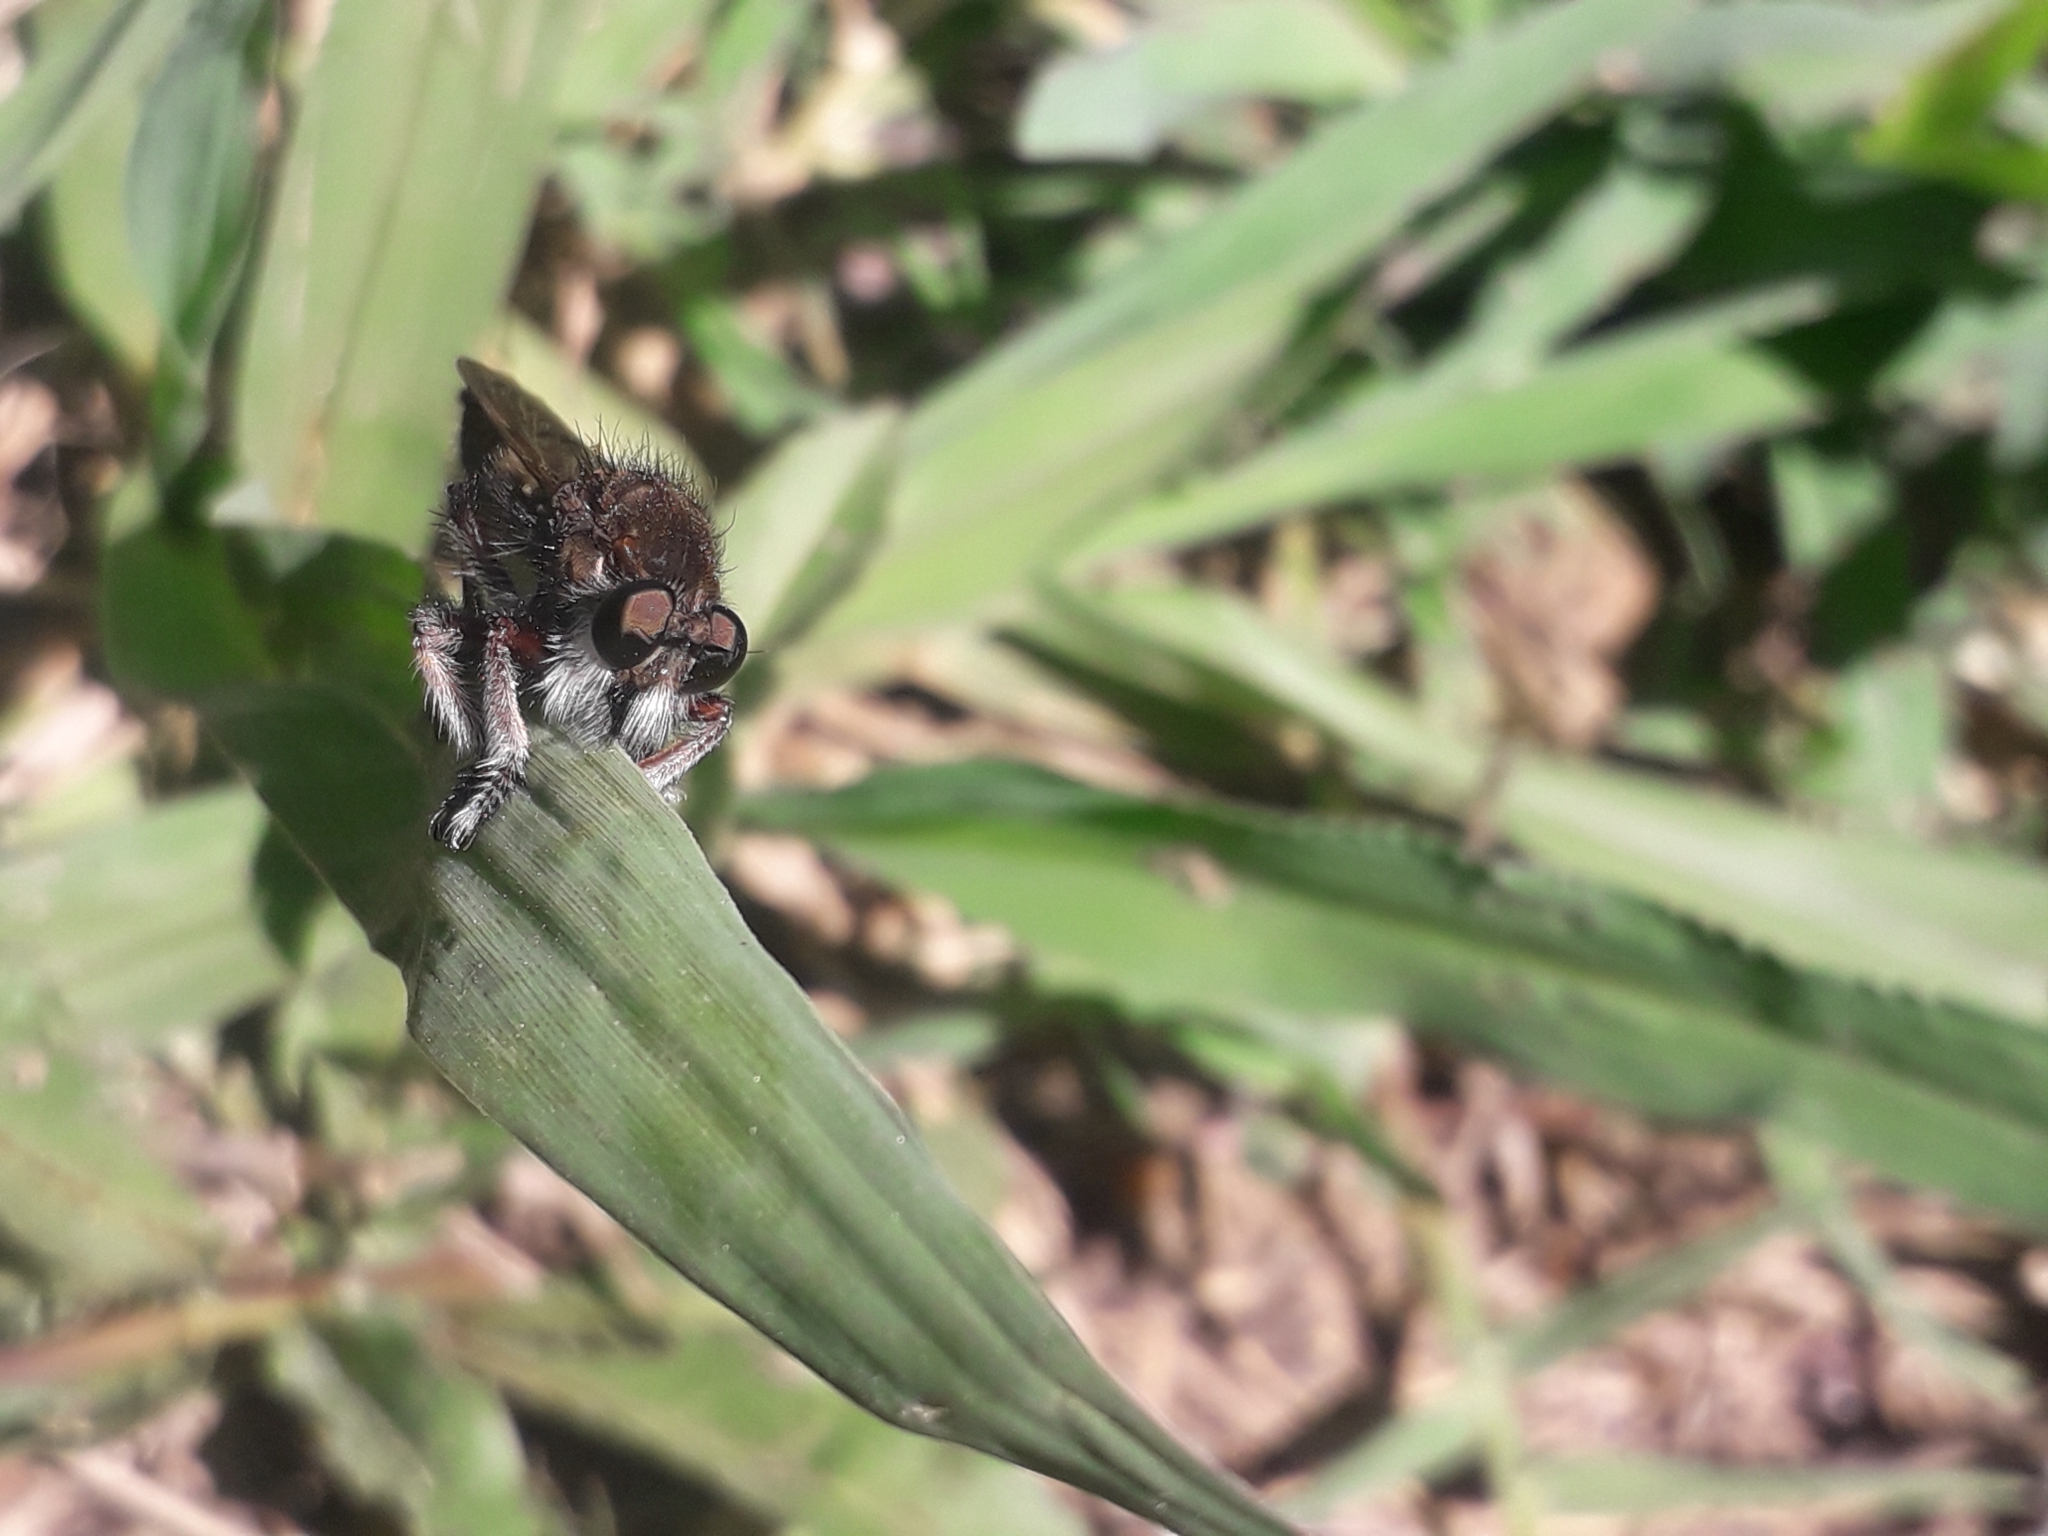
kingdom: Animalia
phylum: Arthropoda
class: Insecta
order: Diptera
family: Asilidae
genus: Mallophora
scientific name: Mallophora bigotii
